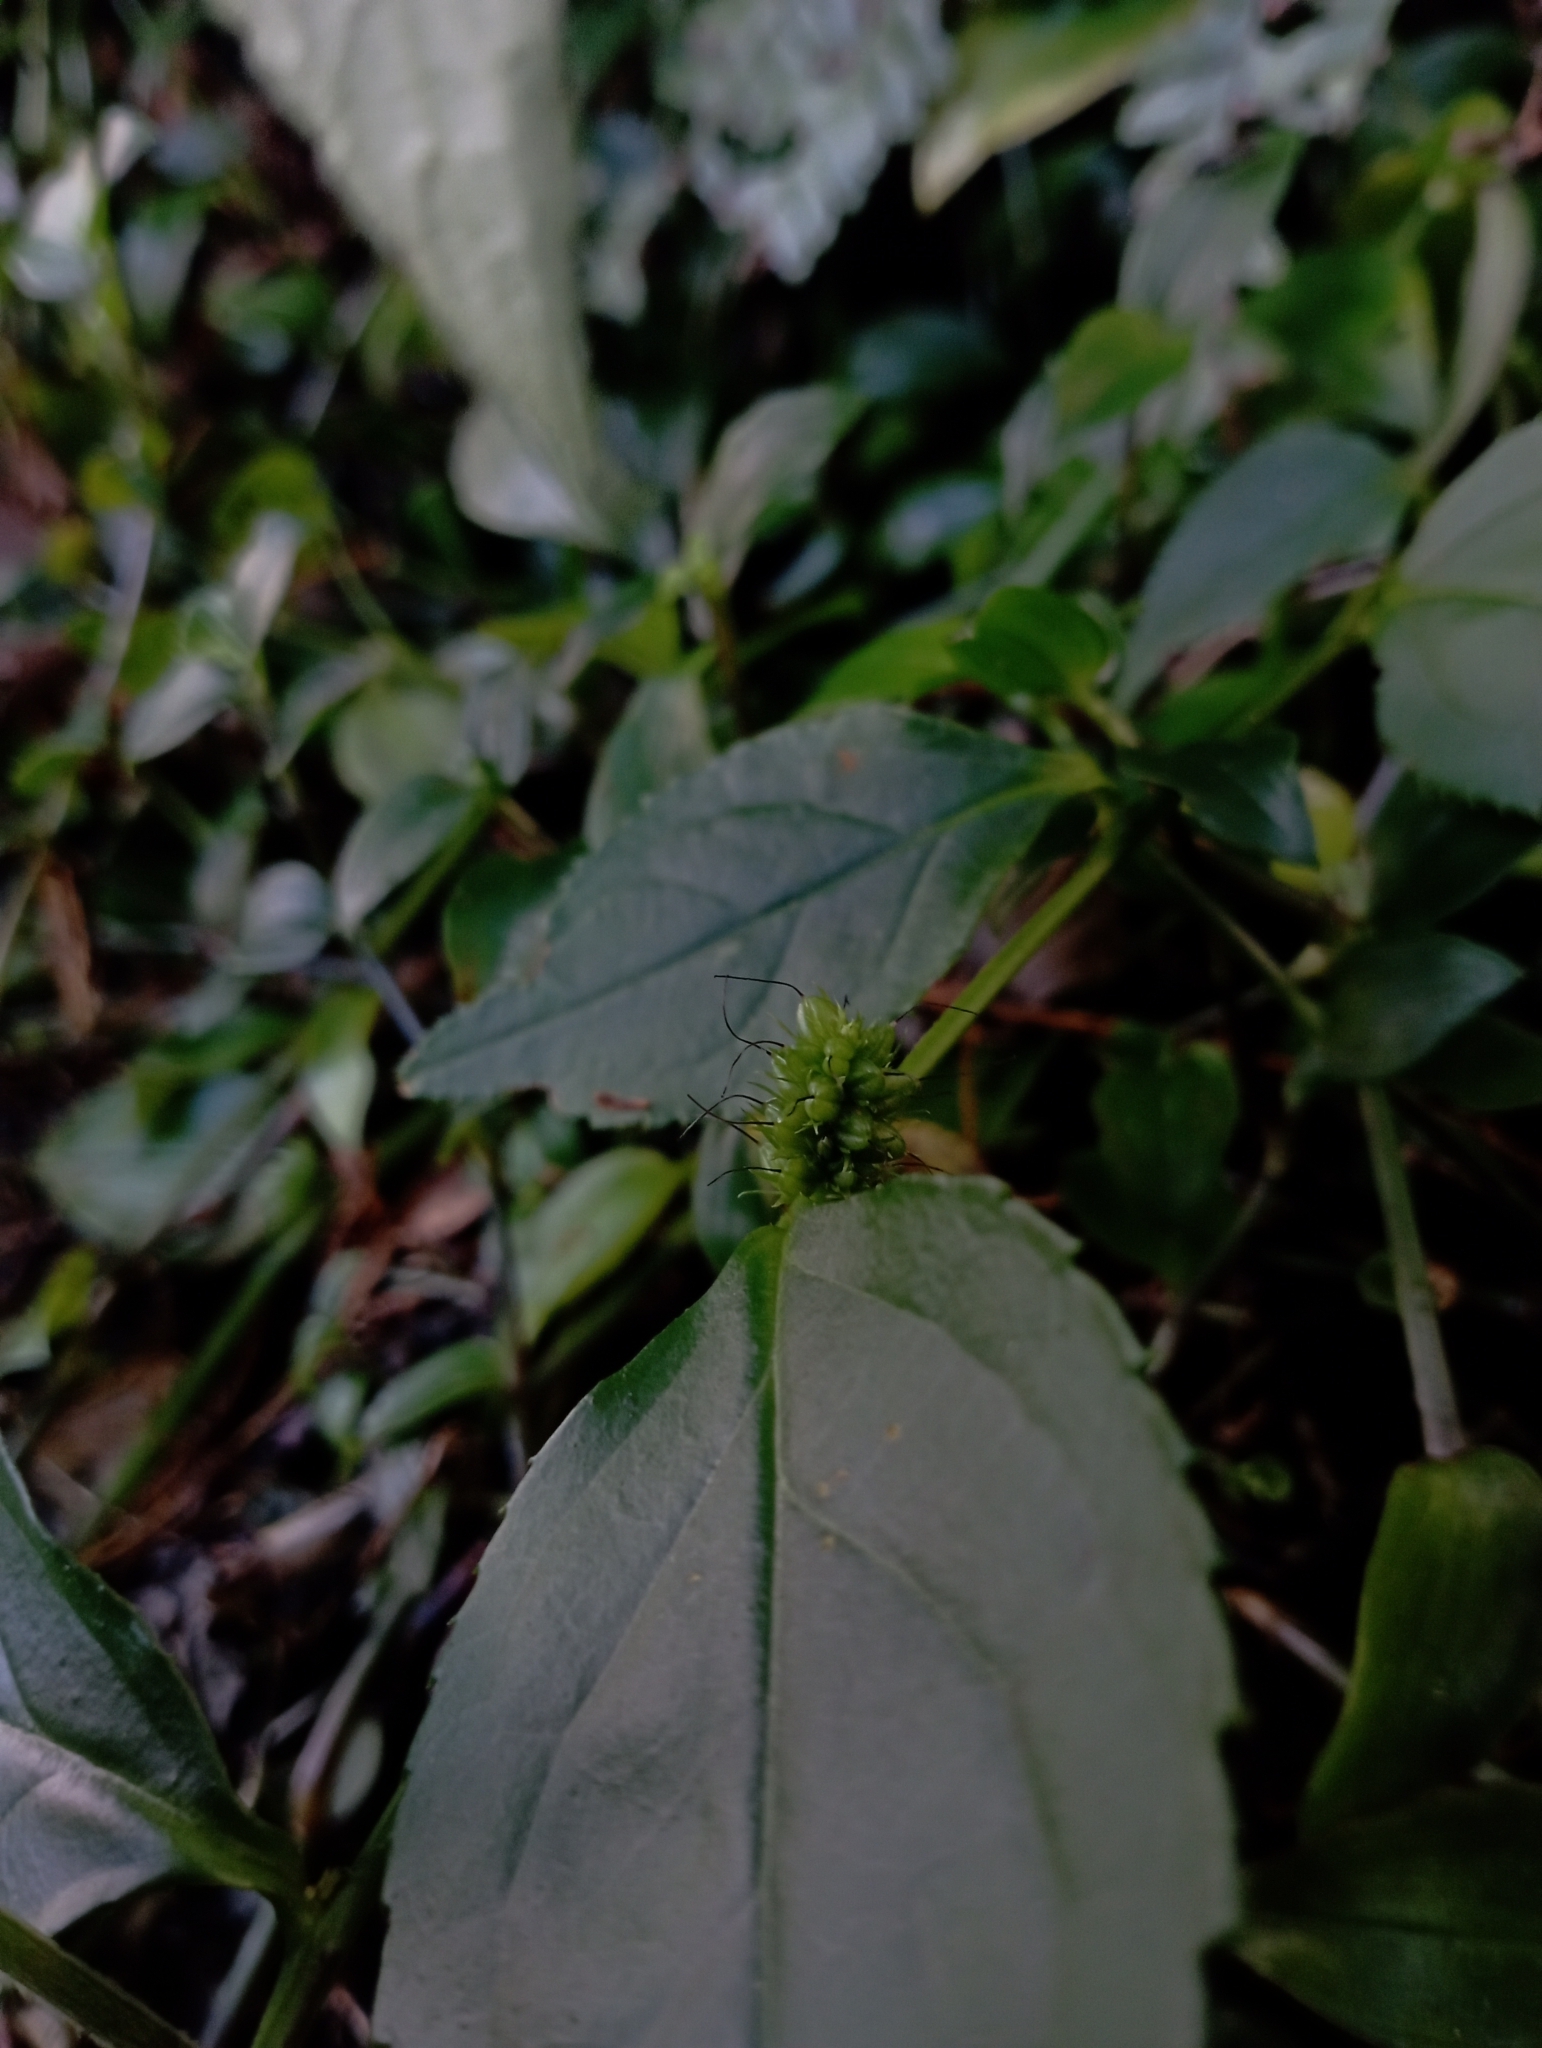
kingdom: Plantae
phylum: Tracheophyta
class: Magnoliopsida
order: Lamiales
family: Plantaginaceae
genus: Veronicastrum
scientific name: Veronicastrum axillare
